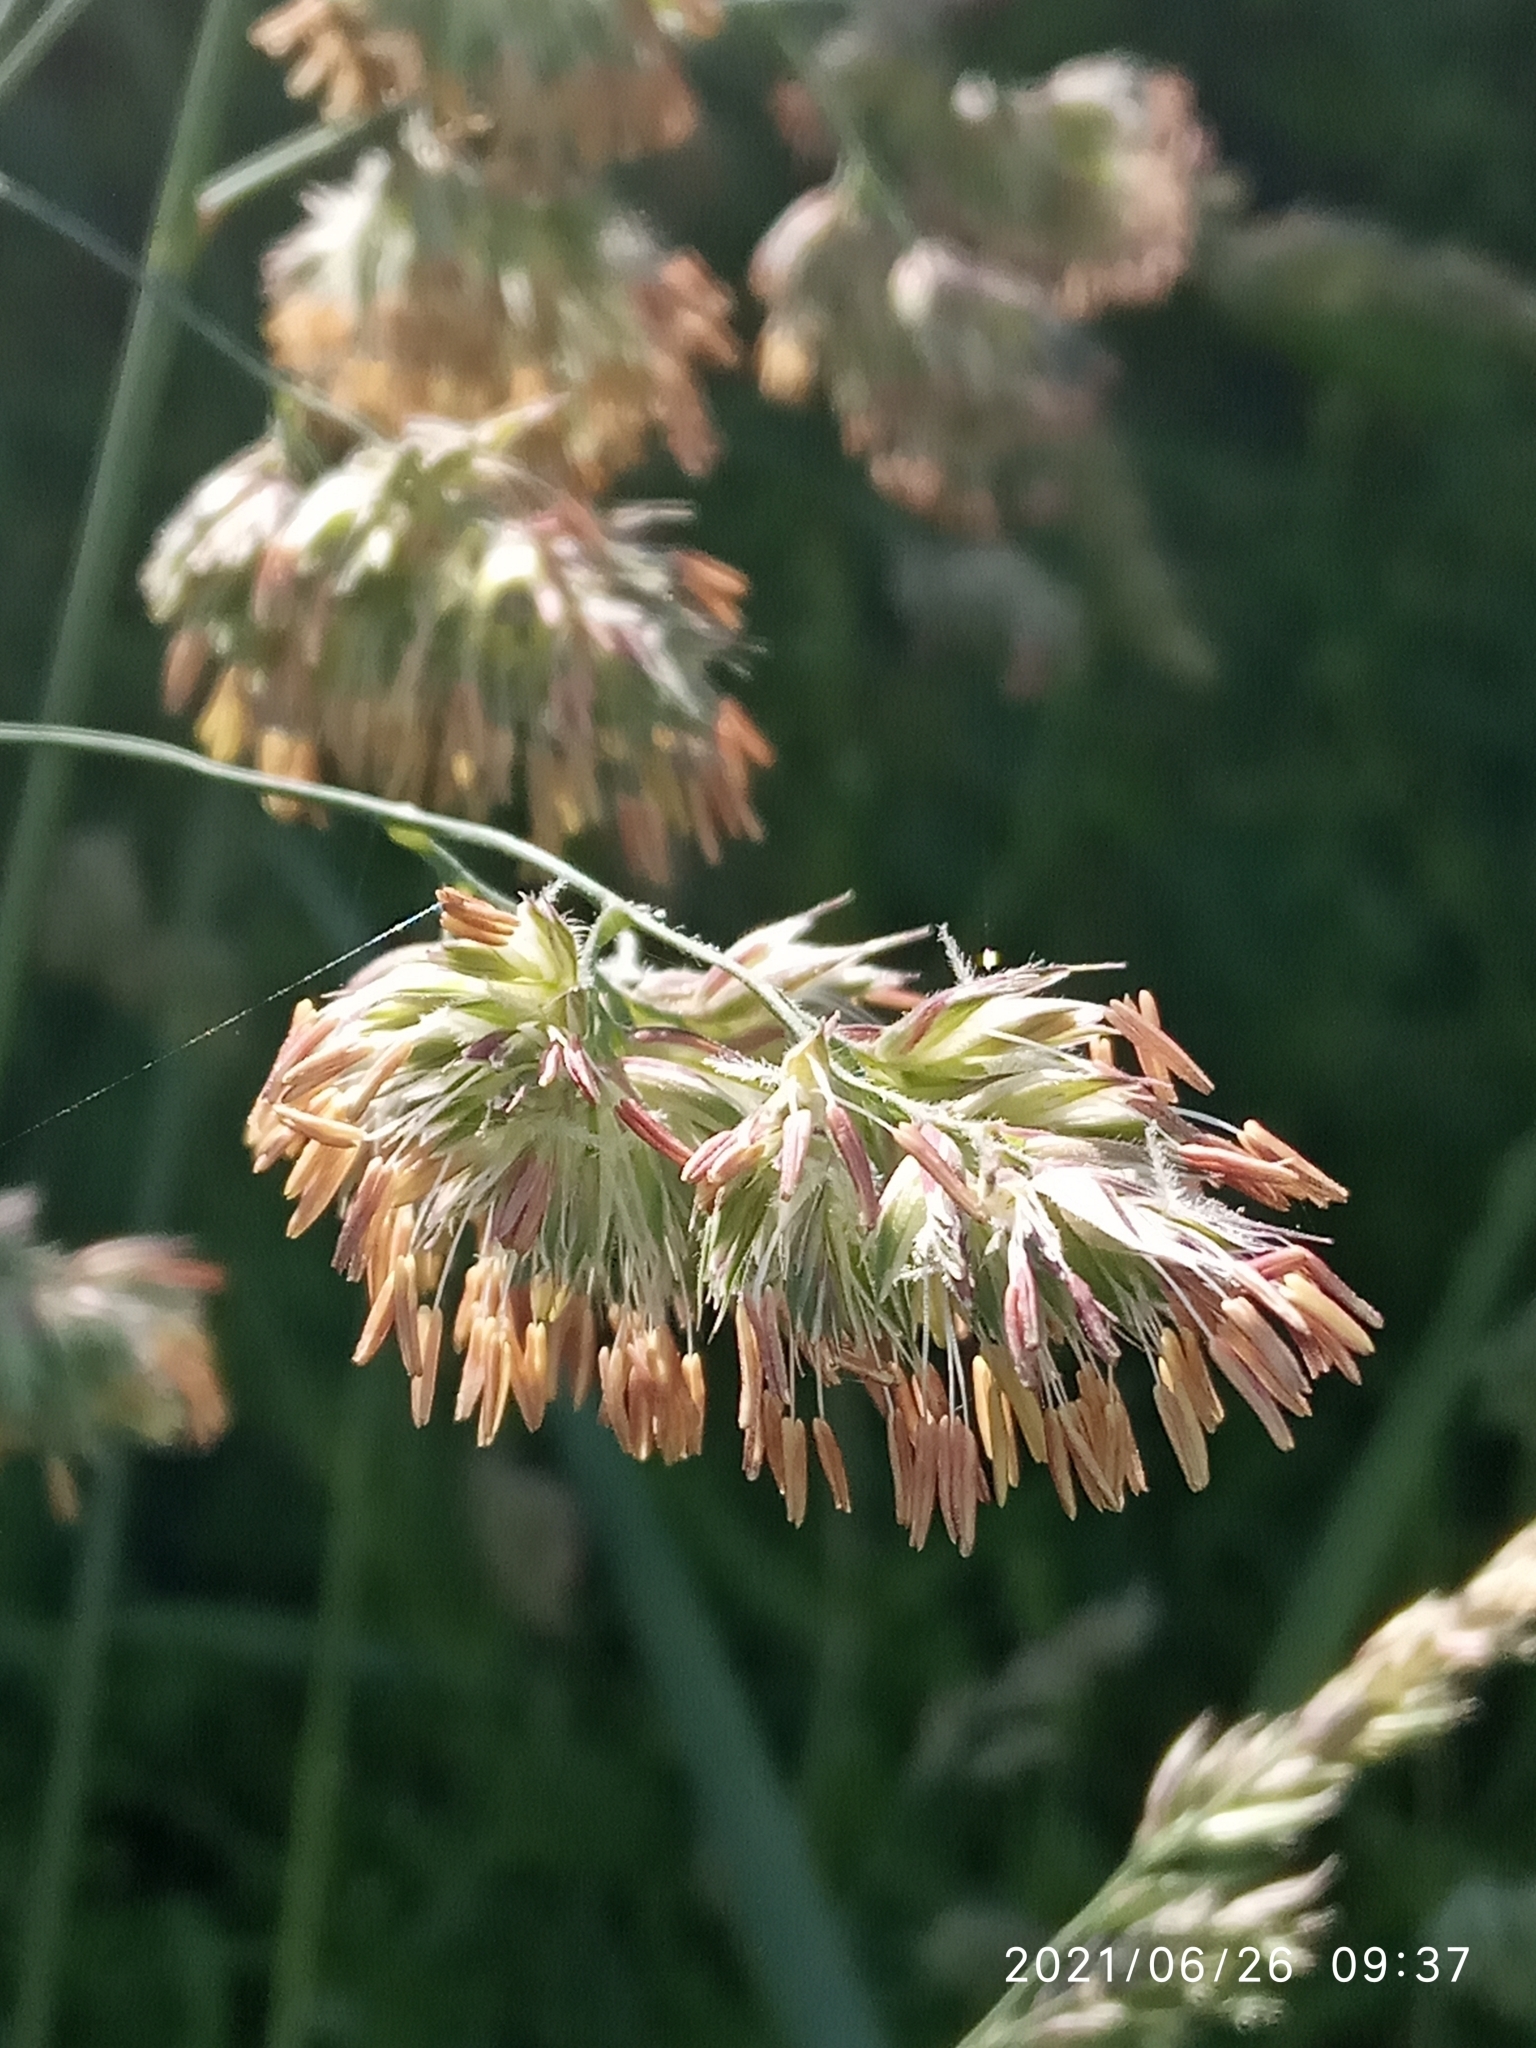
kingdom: Plantae
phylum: Tracheophyta
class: Liliopsida
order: Poales
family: Poaceae
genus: Dactylis
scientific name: Dactylis glomerata
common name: Orchardgrass
